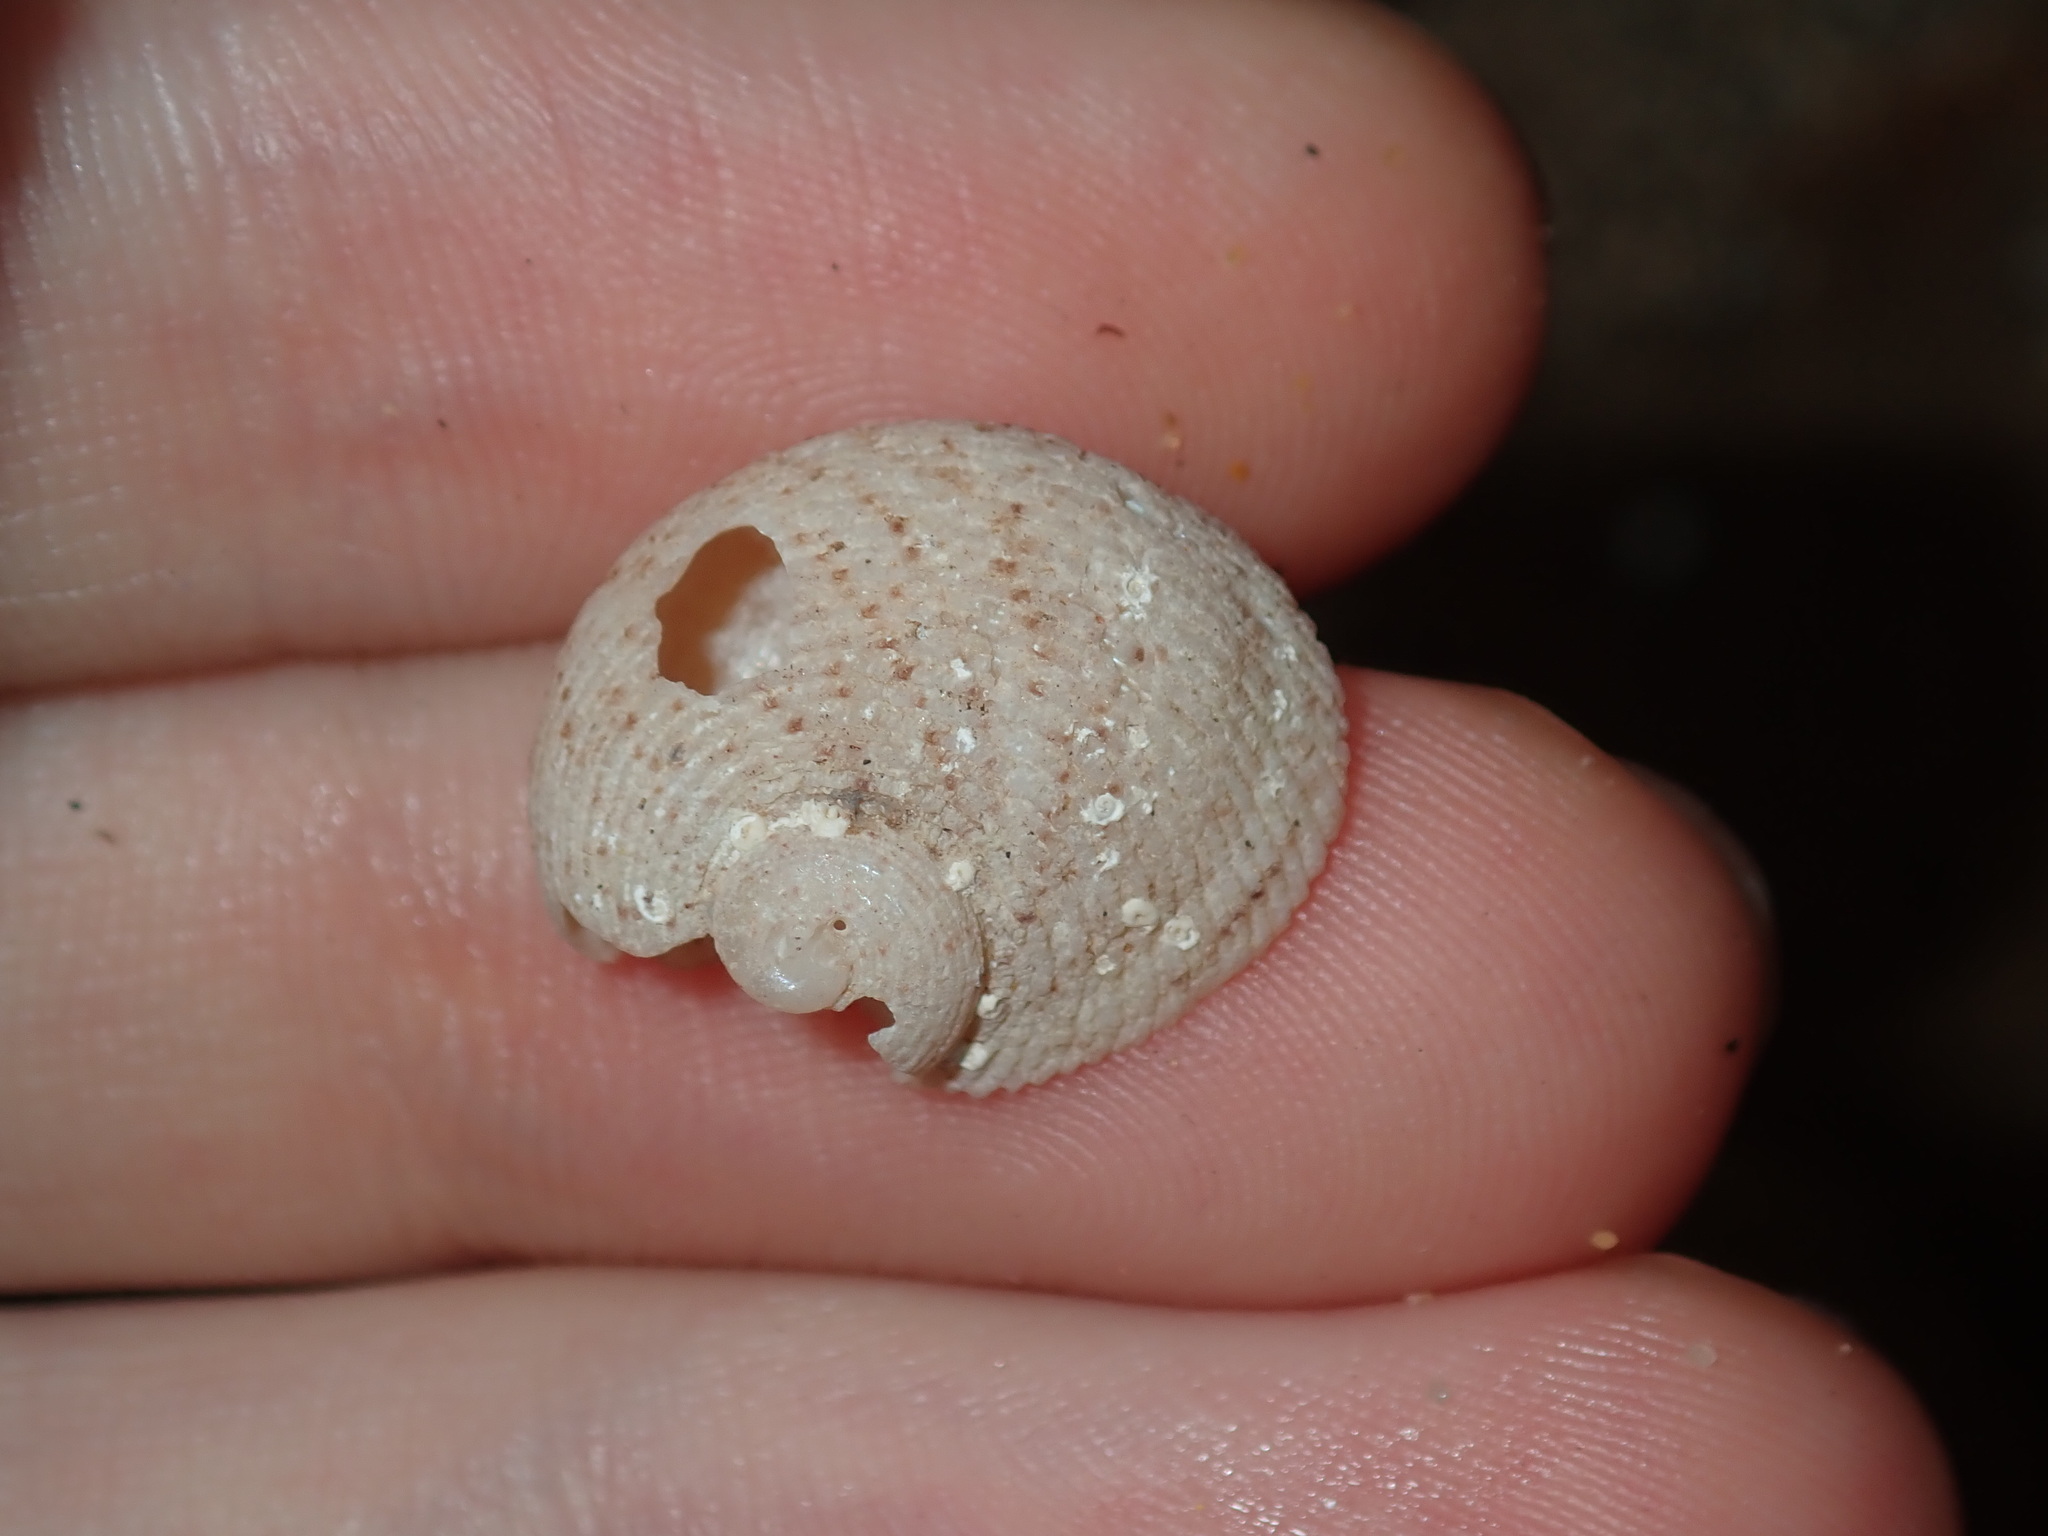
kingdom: Animalia
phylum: Mollusca
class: Gastropoda
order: Seguenziida
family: Chilodontaidae
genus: Granata
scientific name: Granata imbricata
